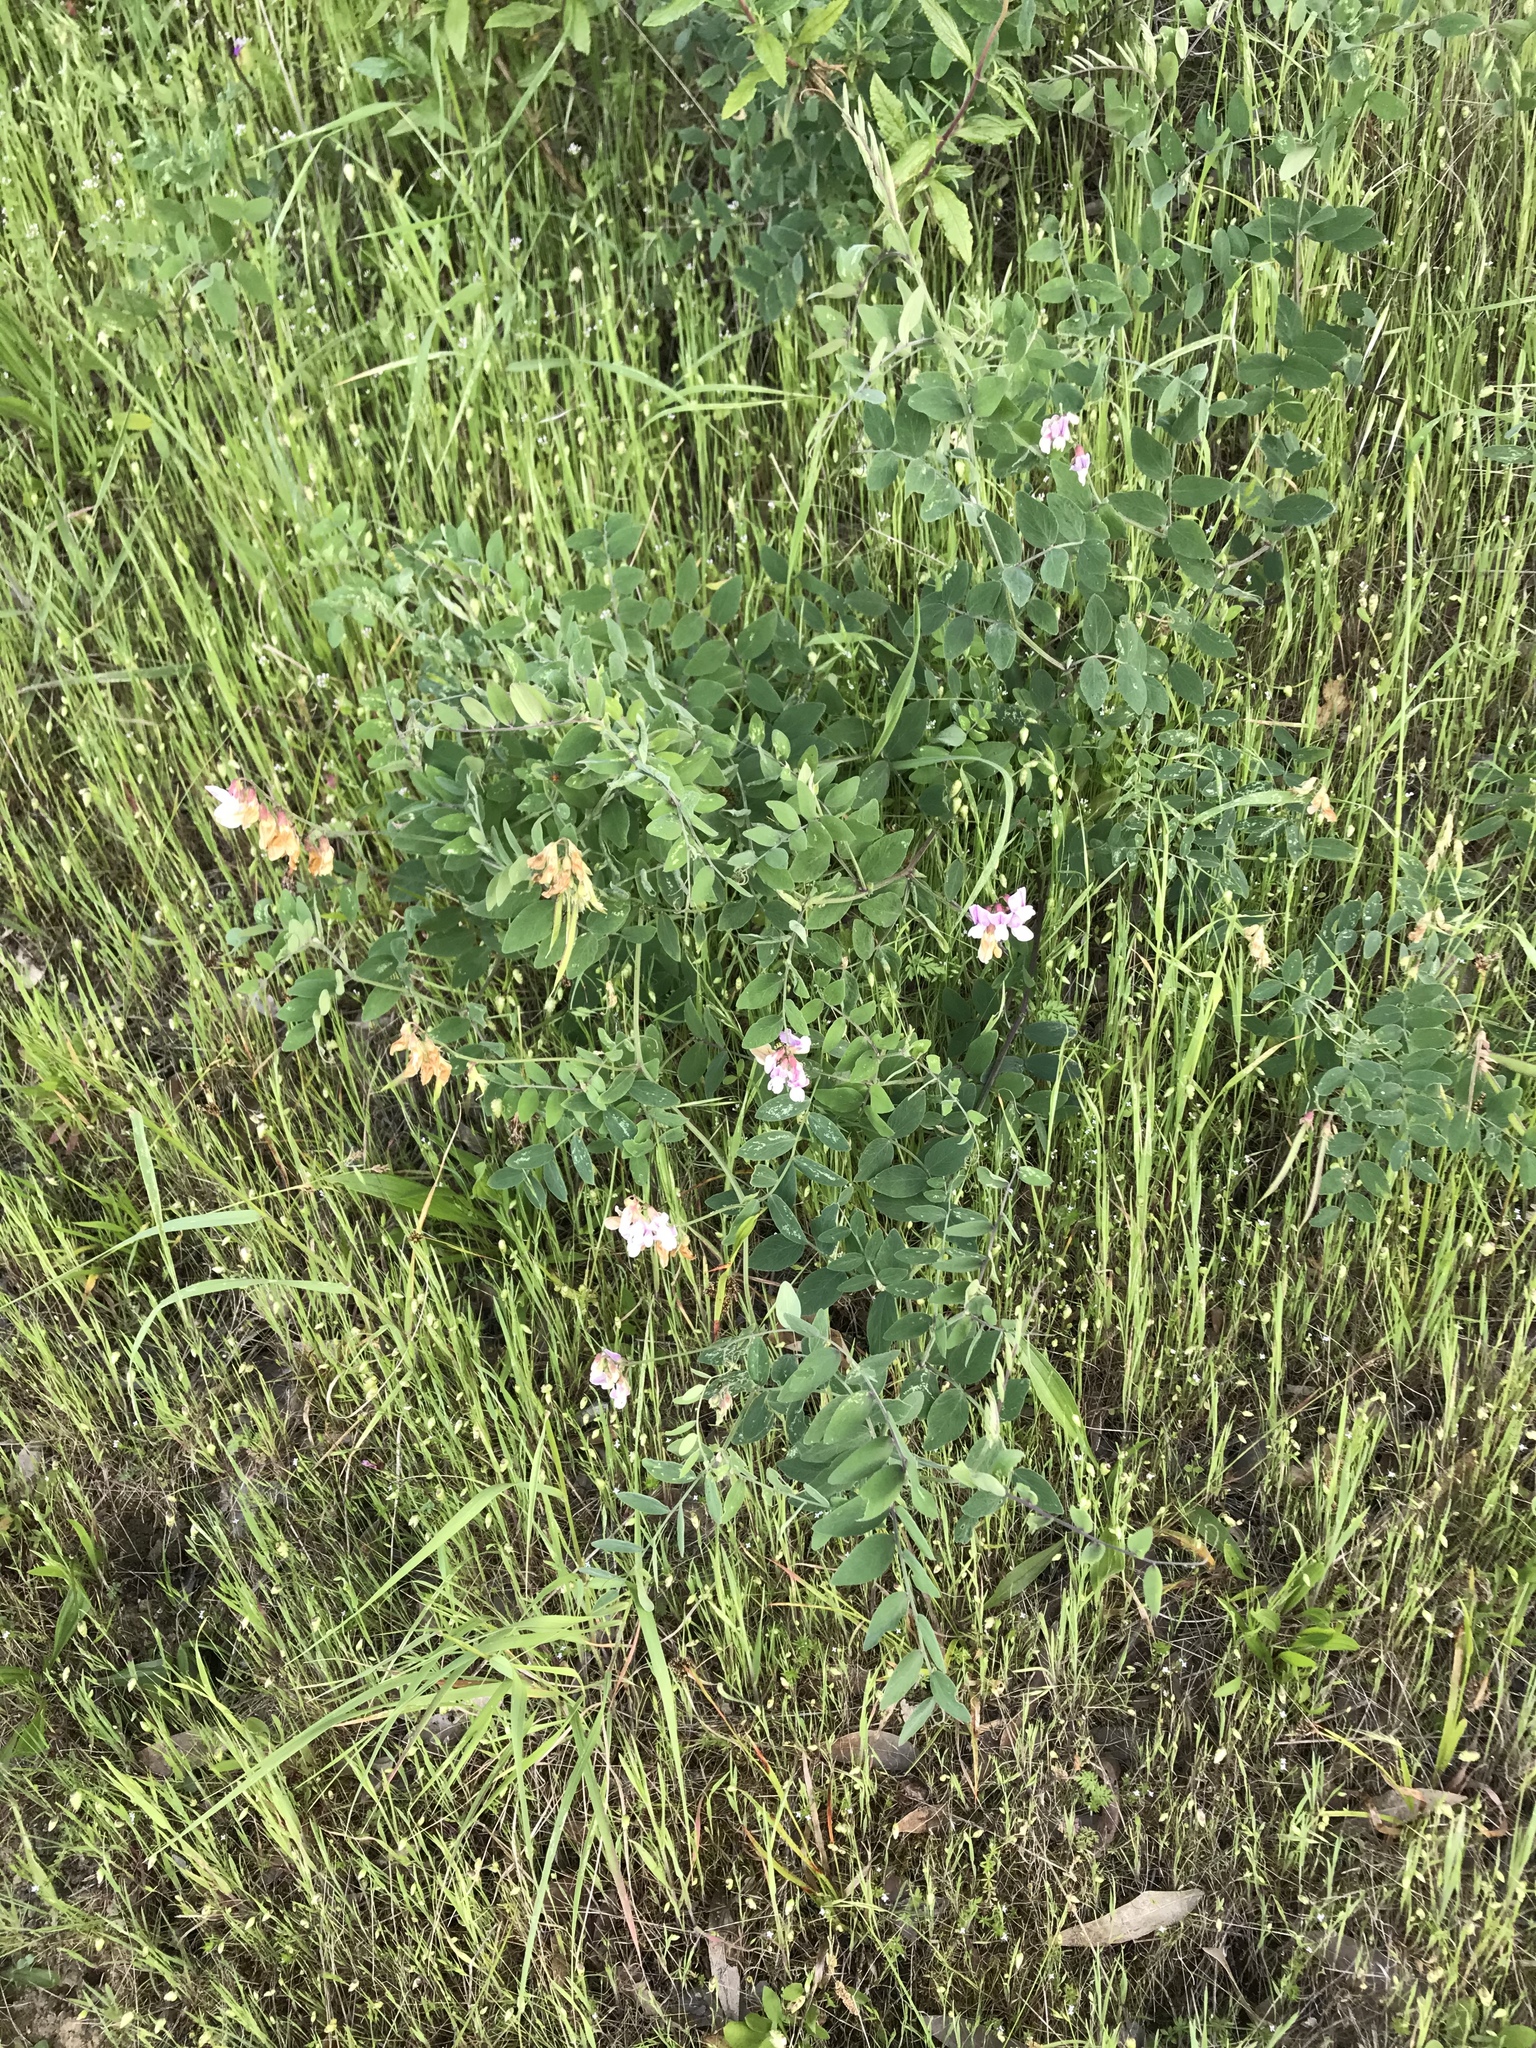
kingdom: Plantae
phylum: Tracheophyta
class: Magnoliopsida
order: Fabales
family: Fabaceae
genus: Lathyrus
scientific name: Lathyrus vestitus
